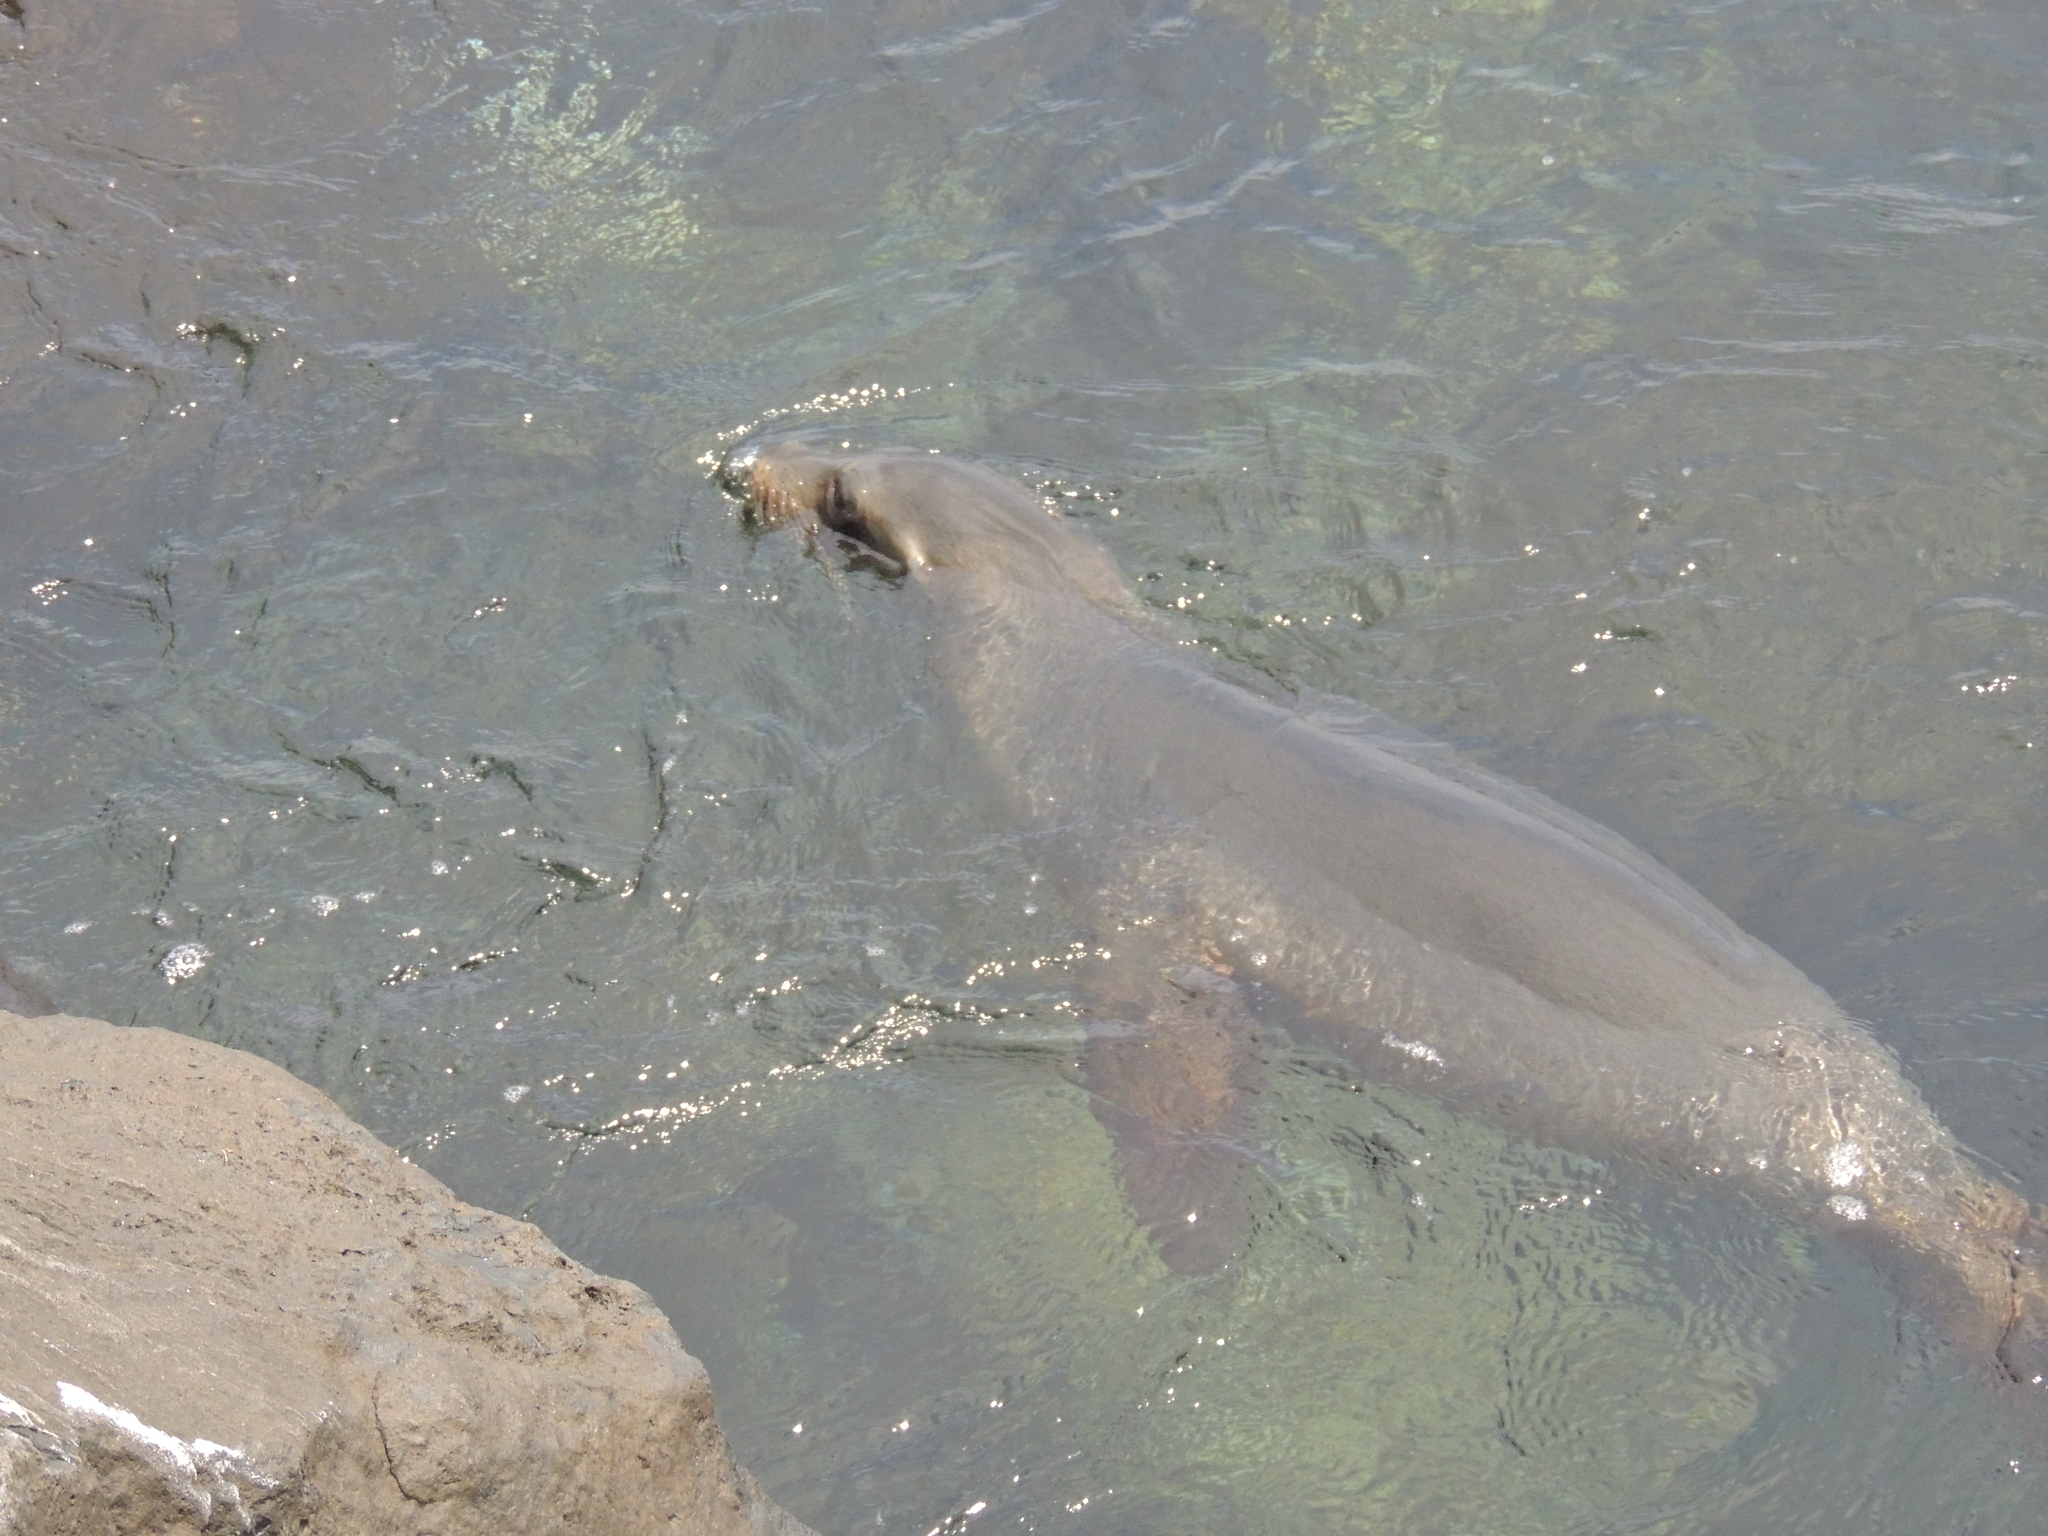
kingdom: Animalia
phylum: Chordata
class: Mammalia
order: Carnivora
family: Otariidae
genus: Zalophus
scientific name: Zalophus wollebaeki
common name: Galapagos sea lion
